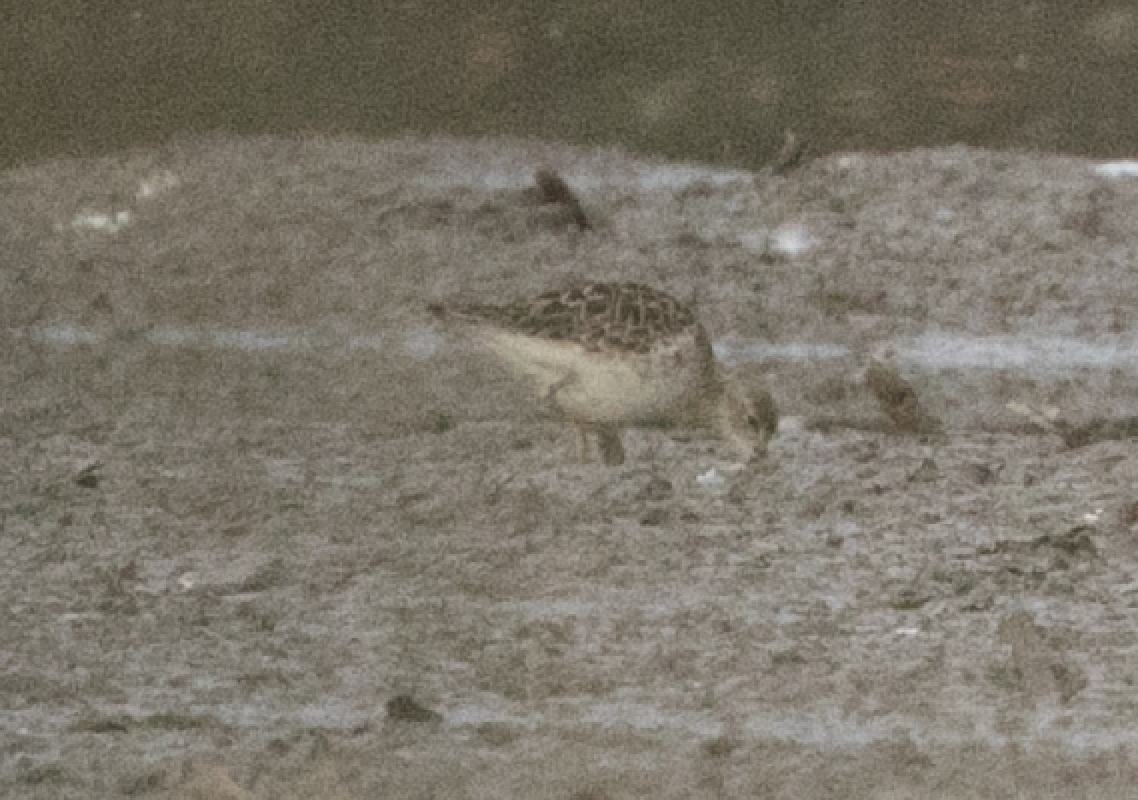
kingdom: Animalia
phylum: Chordata
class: Aves
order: Charadriiformes
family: Scolopacidae
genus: Calidris
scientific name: Calidris pugnax
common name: Ruff
